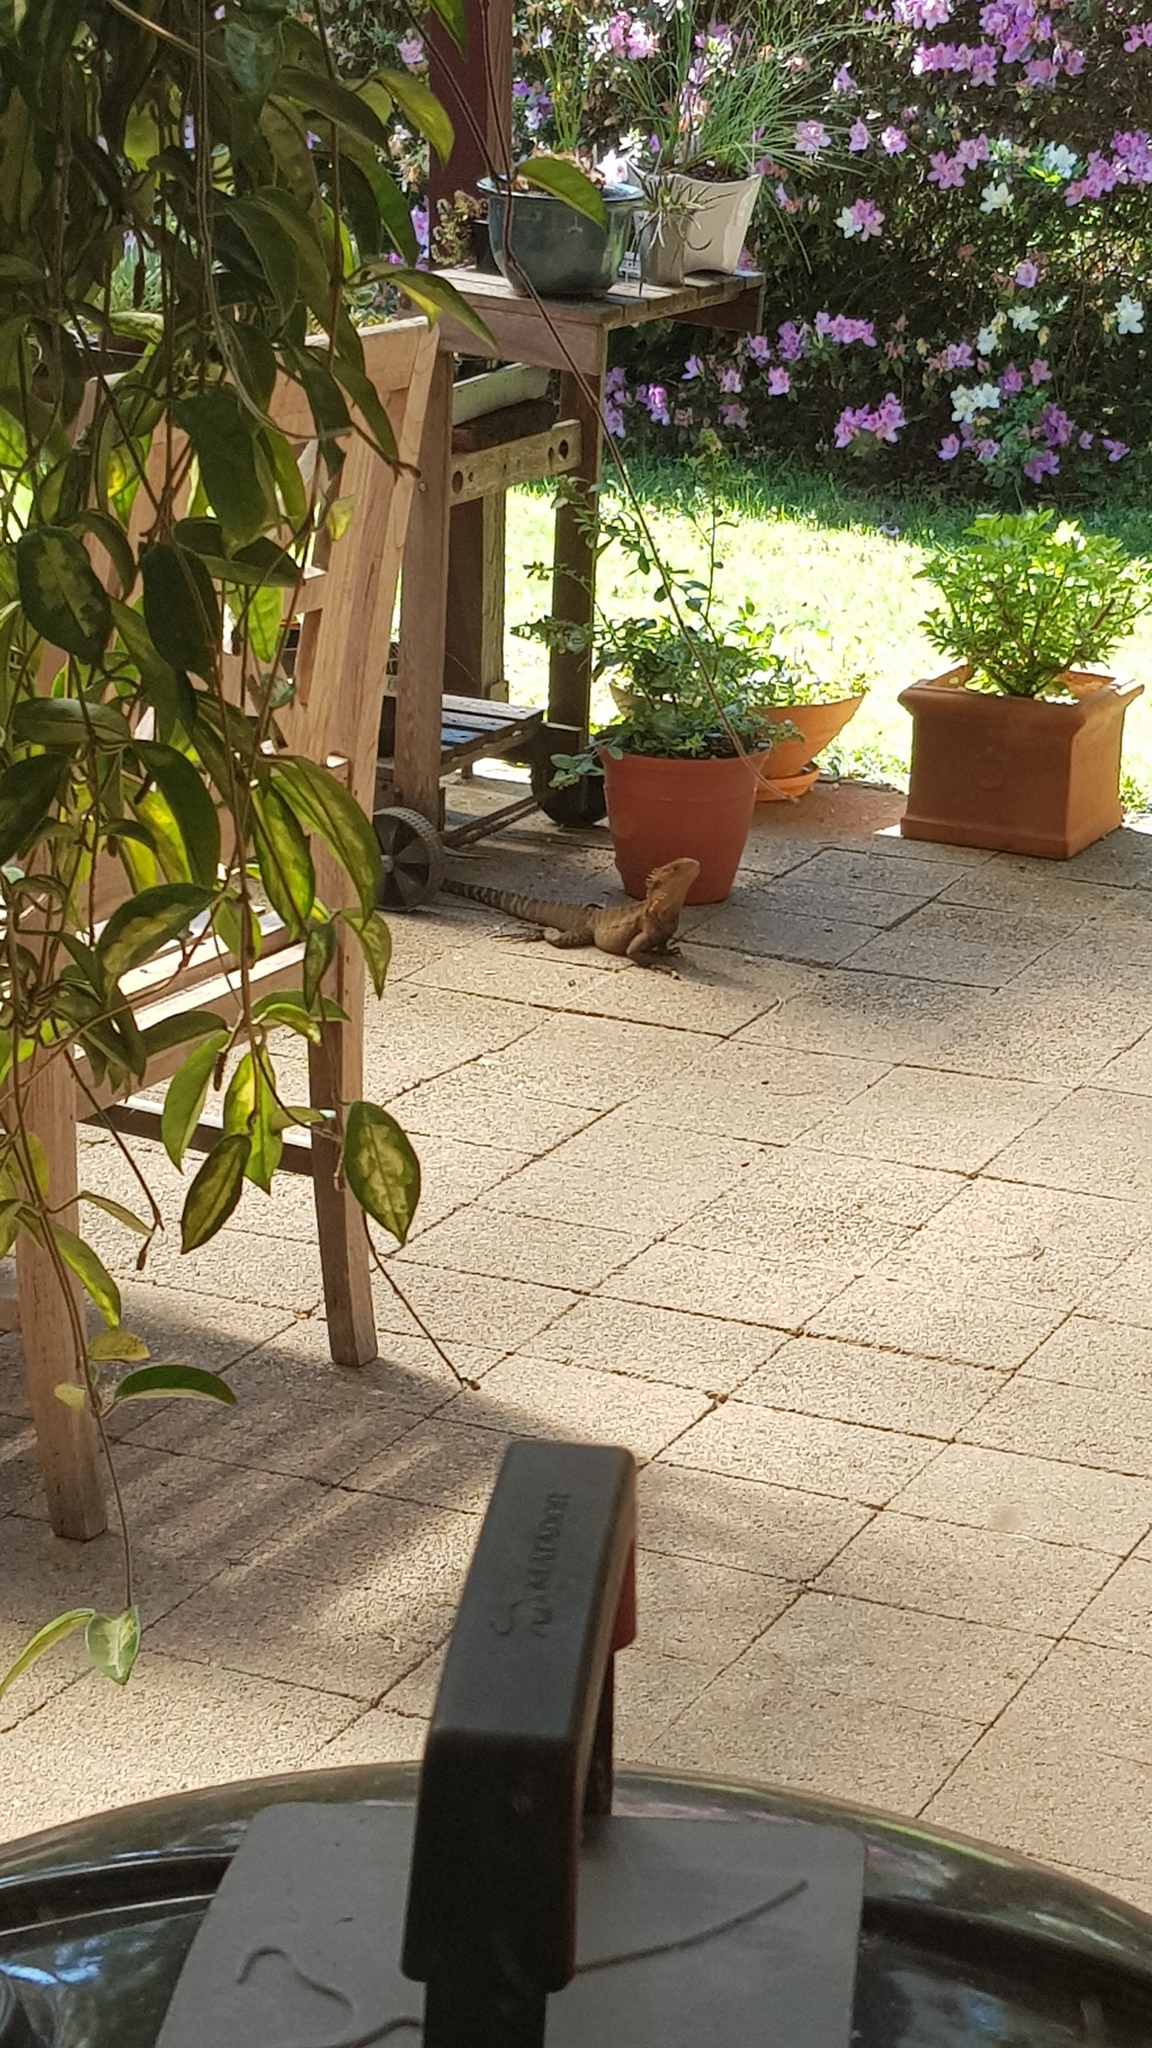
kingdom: Animalia
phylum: Chordata
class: Squamata
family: Agamidae
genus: Intellagama
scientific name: Intellagama lesueurii
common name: Eastern water dragon
